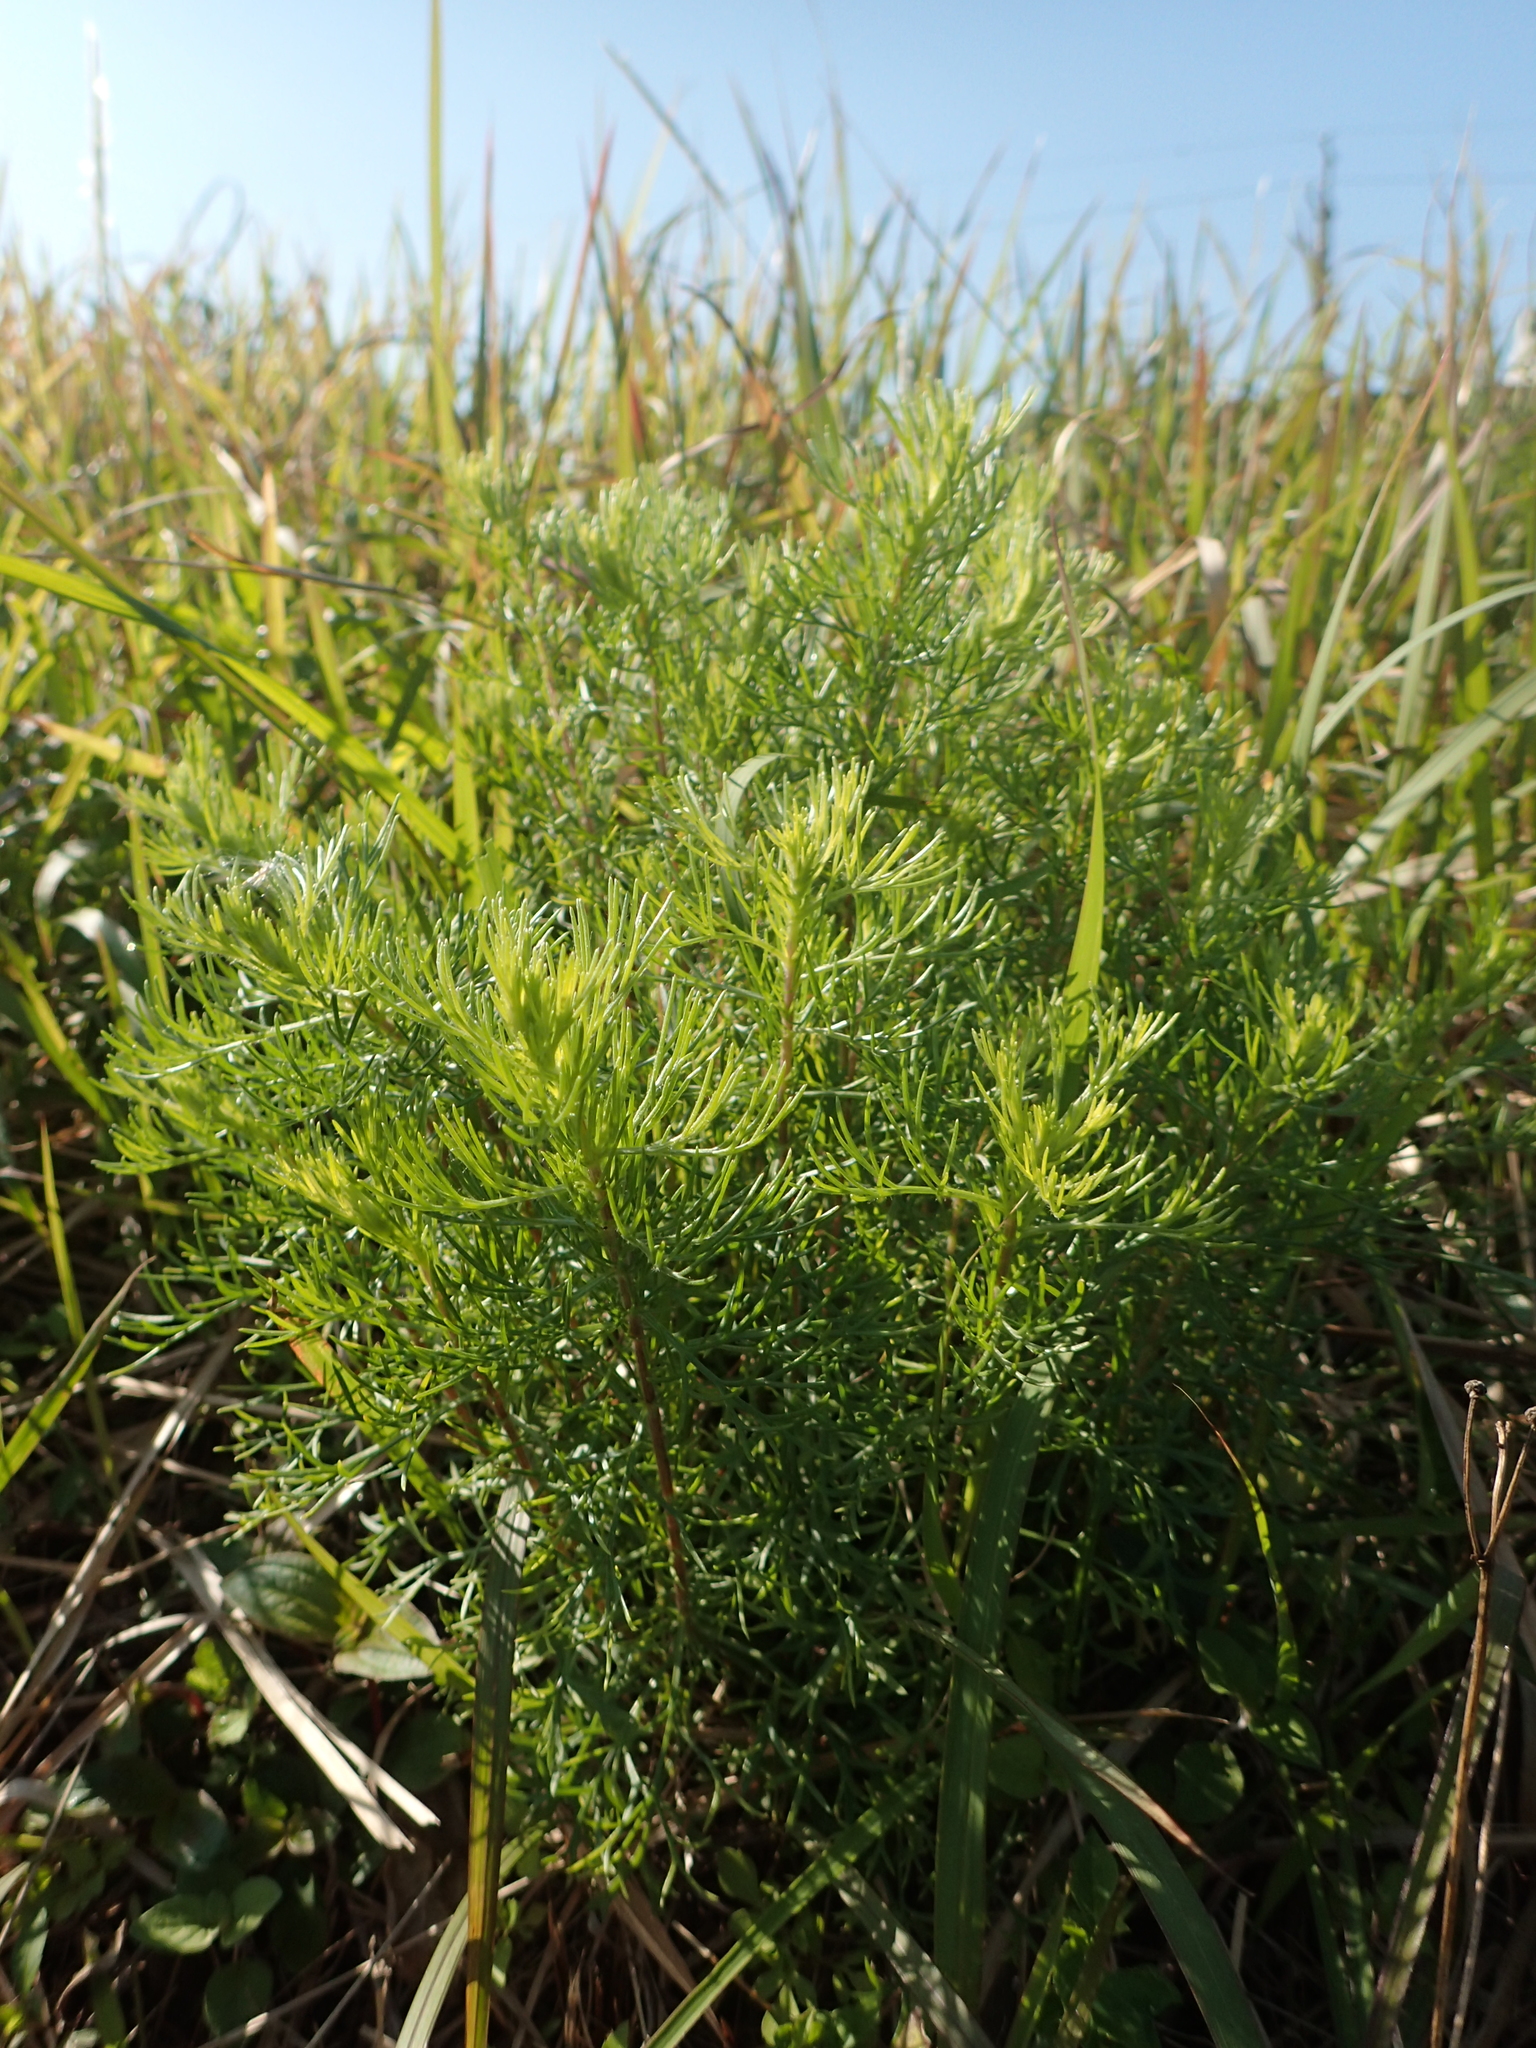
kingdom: Plantae
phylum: Tracheophyta
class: Magnoliopsida
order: Asterales
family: Asteraceae
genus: Artemisia
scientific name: Artemisia capillaris
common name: Yin-chen wormwood
